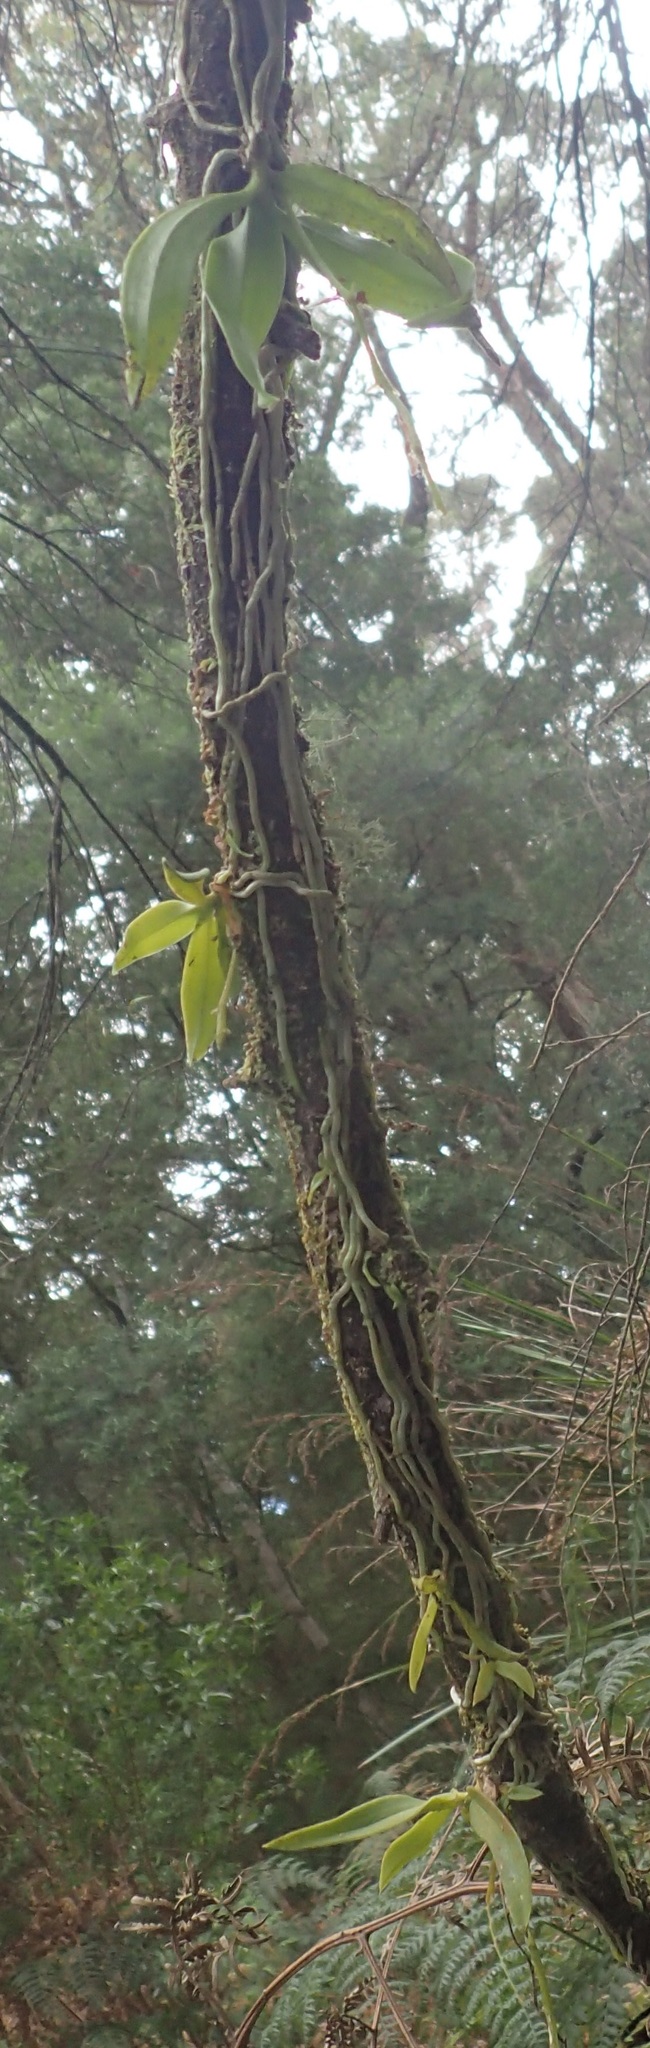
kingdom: Plantae
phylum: Tracheophyta
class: Liliopsida
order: Asparagales
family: Orchidaceae
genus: Sarcochilus
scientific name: Sarcochilus australis
